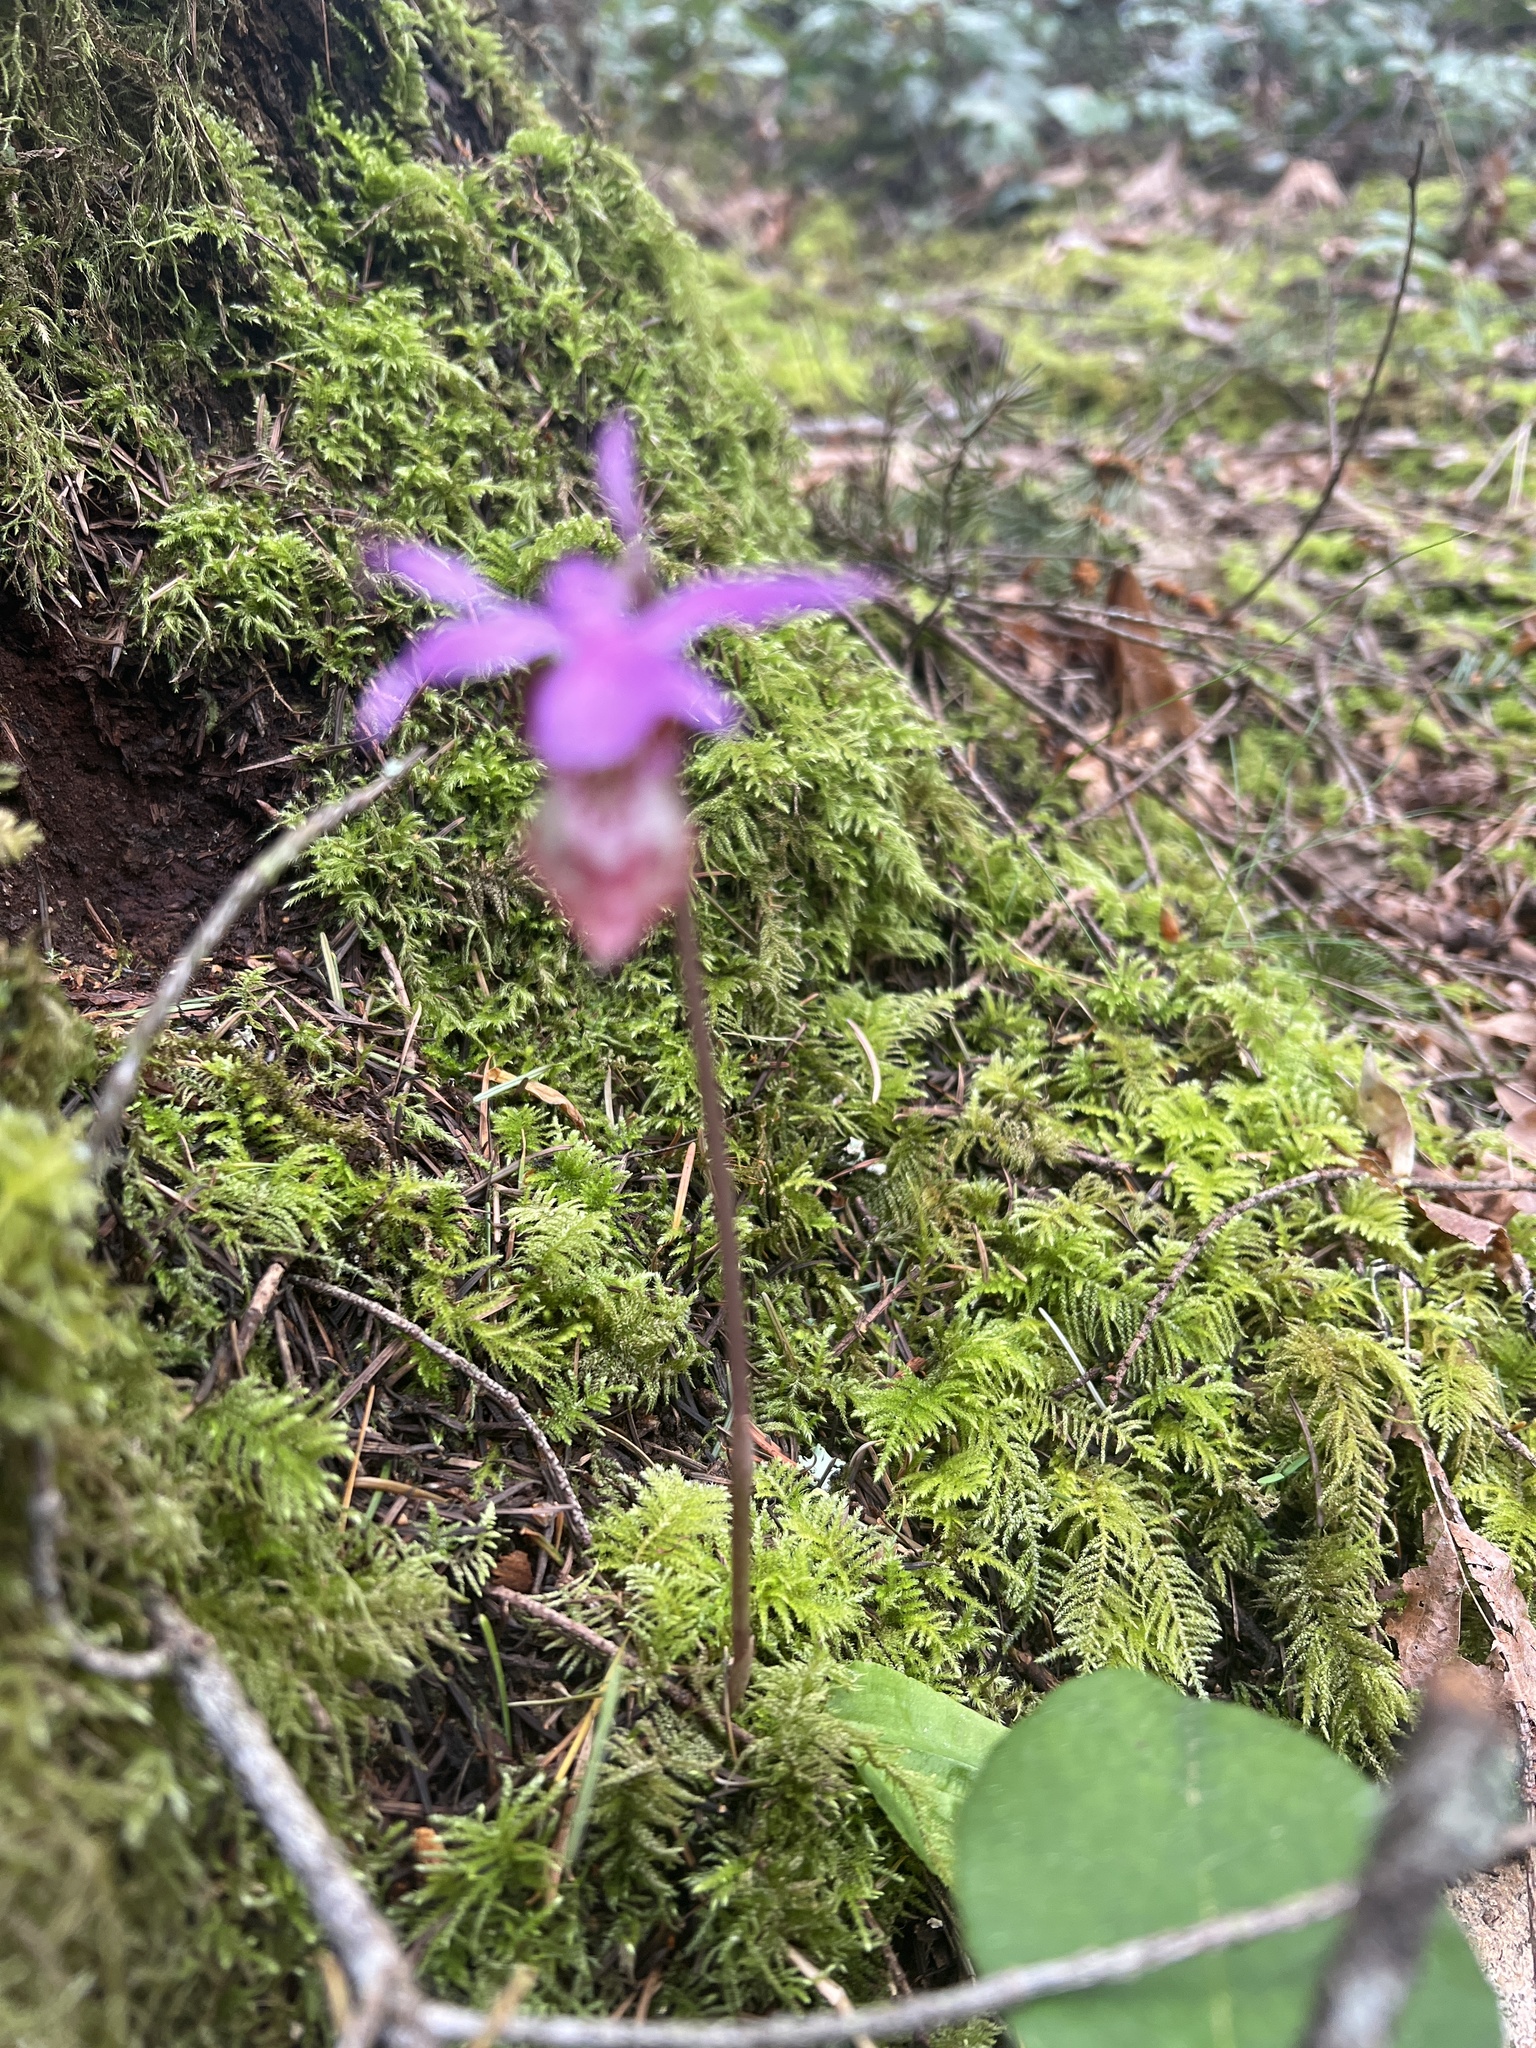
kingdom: Plantae
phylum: Tracheophyta
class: Liliopsida
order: Asparagales
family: Orchidaceae
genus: Calypso
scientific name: Calypso bulbosa
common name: Calypso
